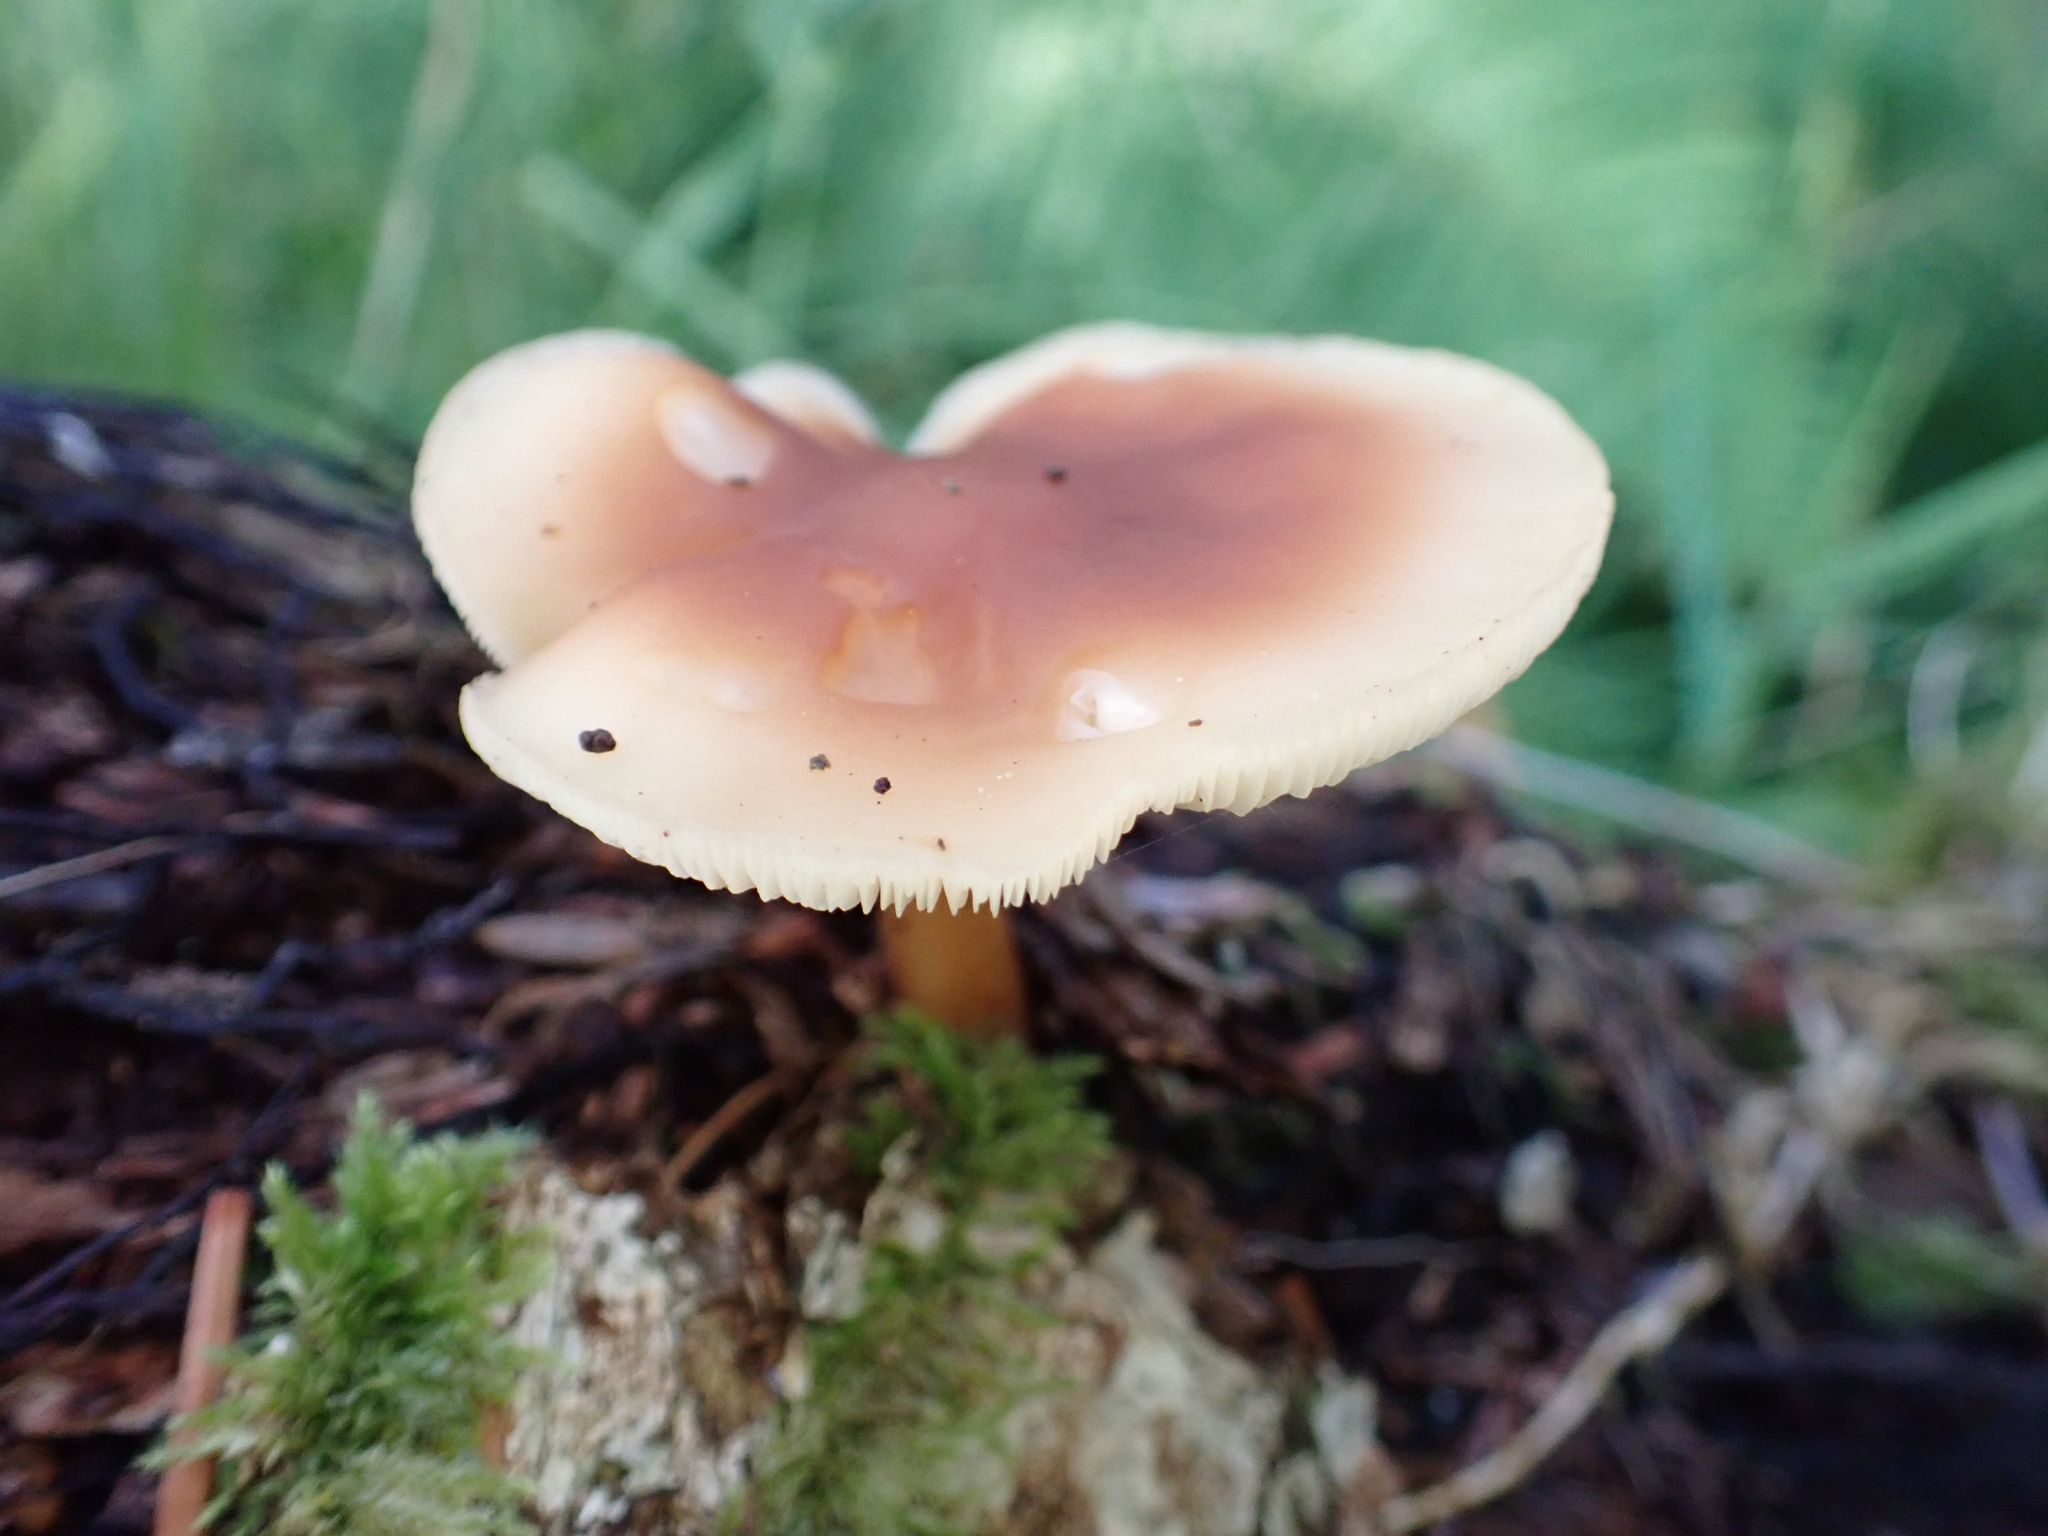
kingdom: Fungi
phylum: Basidiomycota
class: Agaricomycetes
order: Agaricales
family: Omphalotaceae
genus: Rhodocollybia
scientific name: Rhodocollybia butyracea
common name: Butter cap
